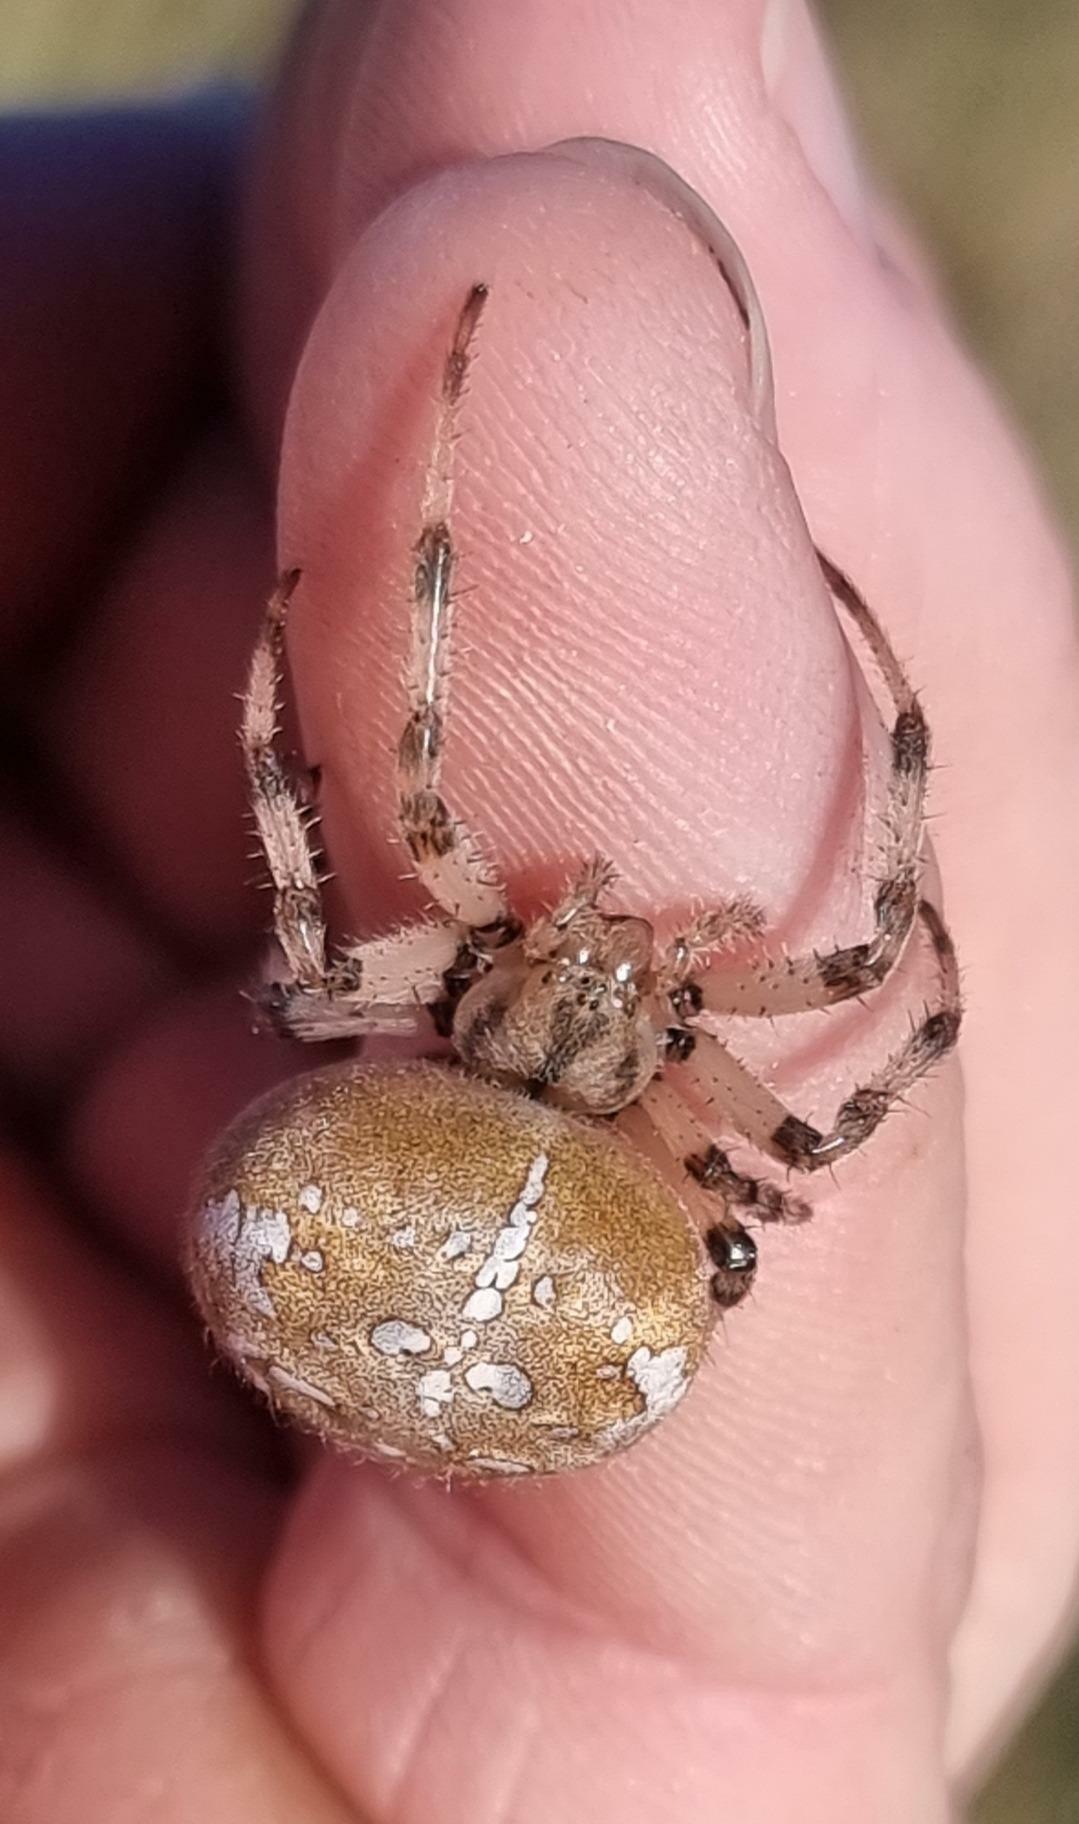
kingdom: Animalia
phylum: Arthropoda
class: Arachnida
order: Araneae
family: Araneidae
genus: Araneus
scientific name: Araneus quadratus
